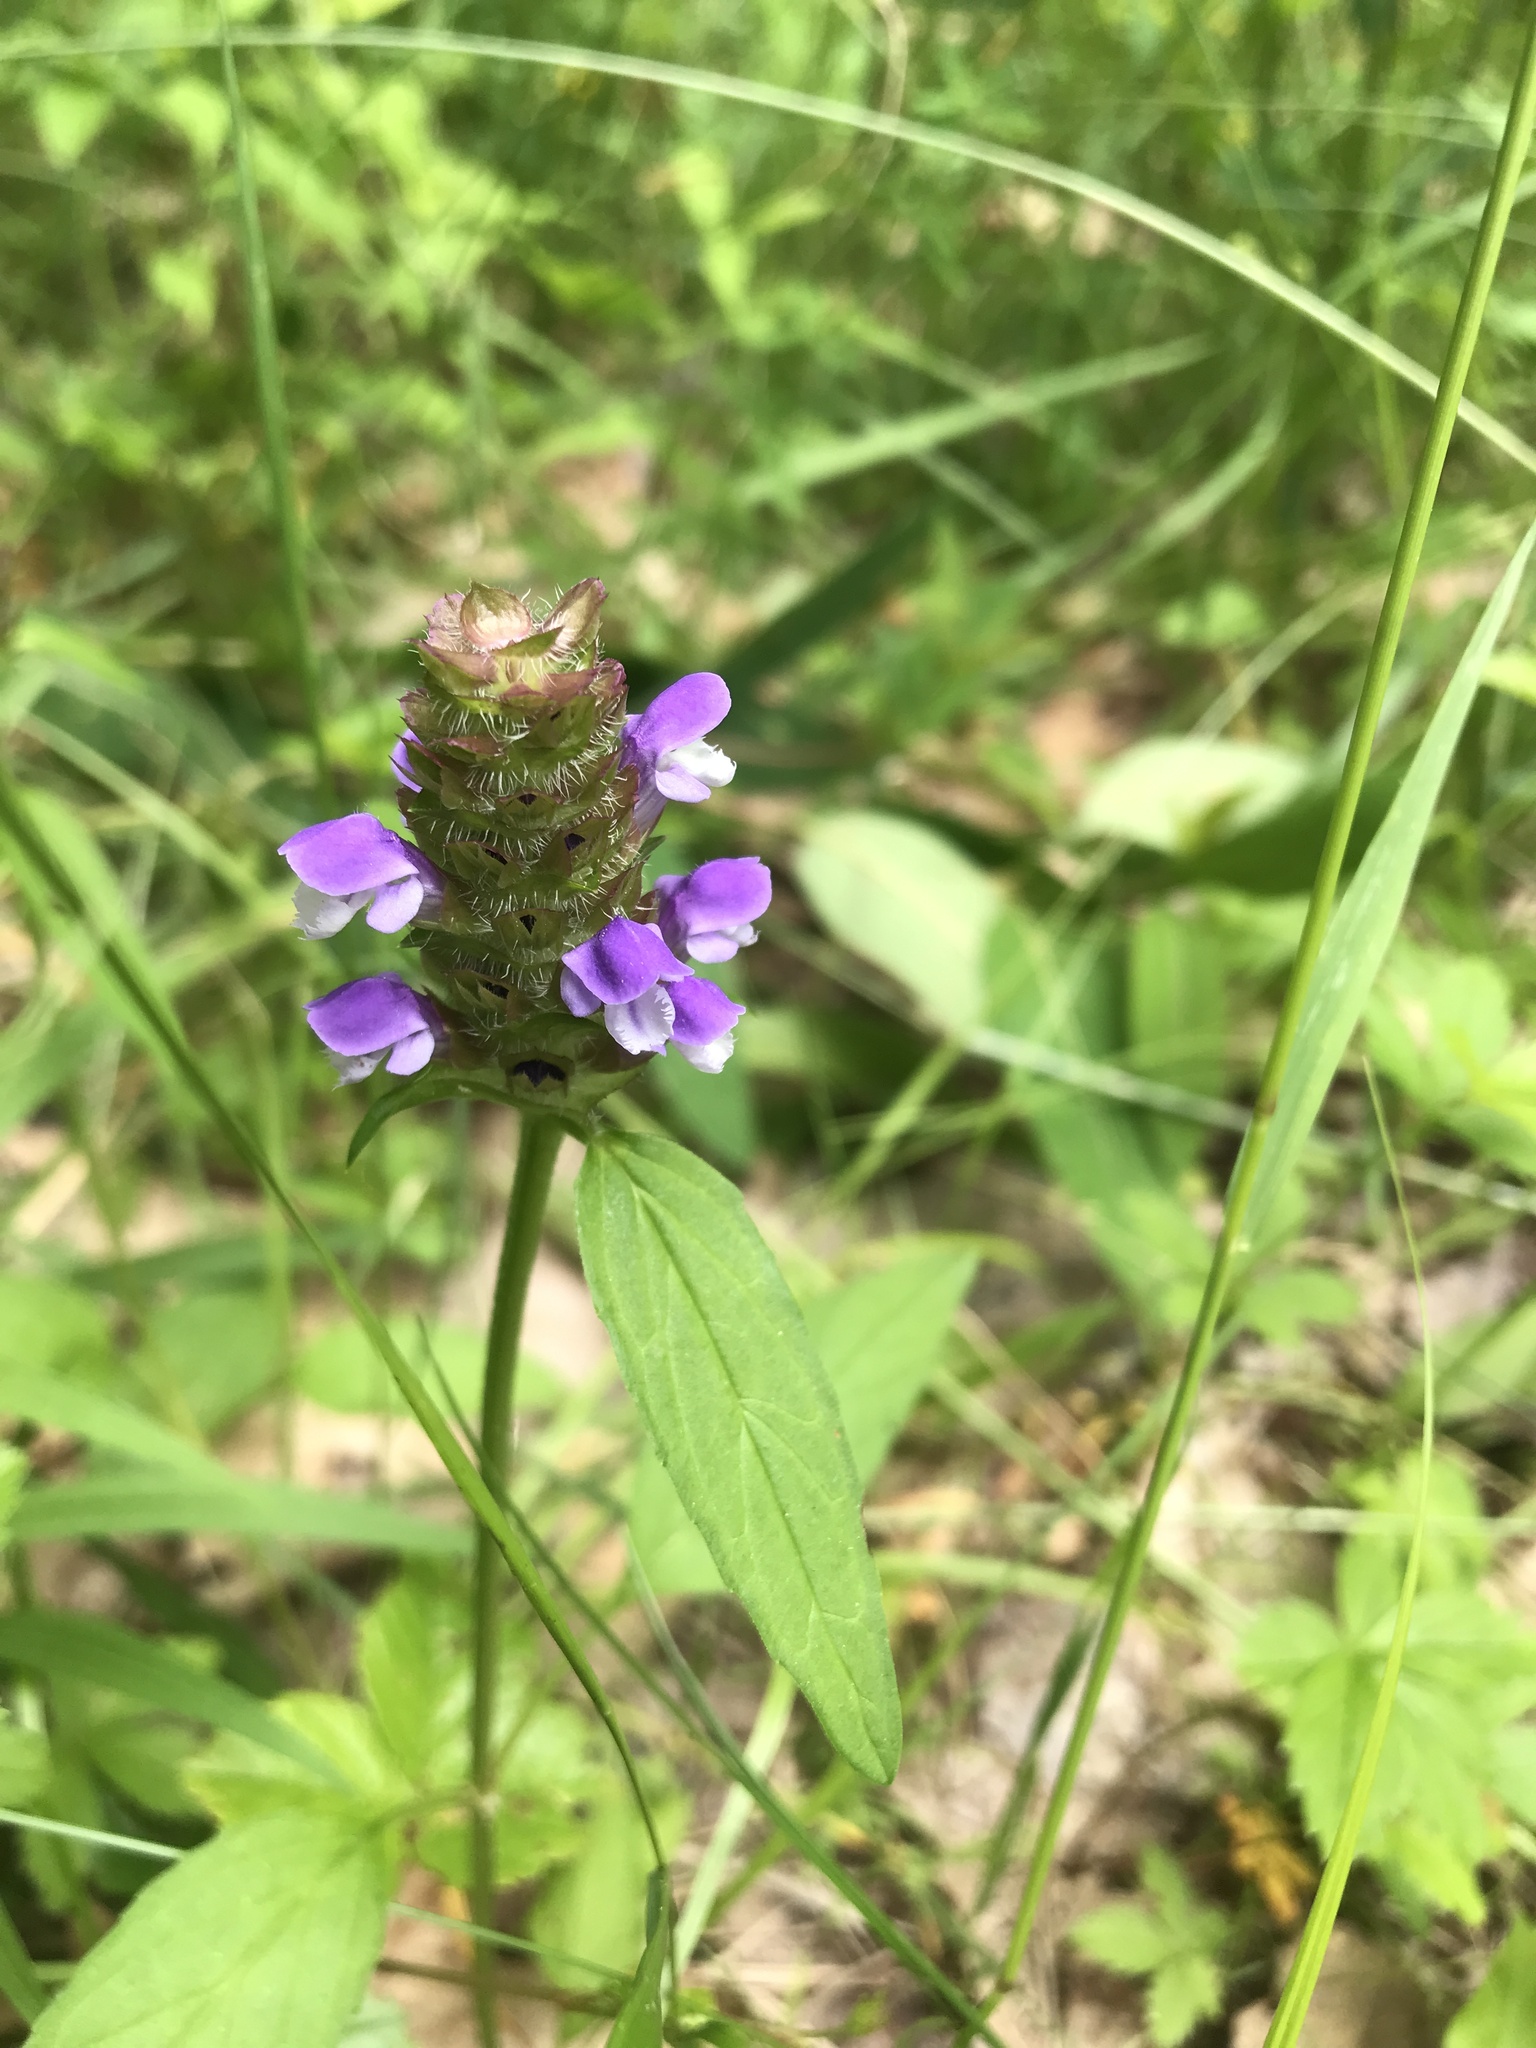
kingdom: Plantae
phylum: Tracheophyta
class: Magnoliopsida
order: Lamiales
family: Lamiaceae
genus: Prunella
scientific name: Prunella vulgaris
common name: Heal-all
